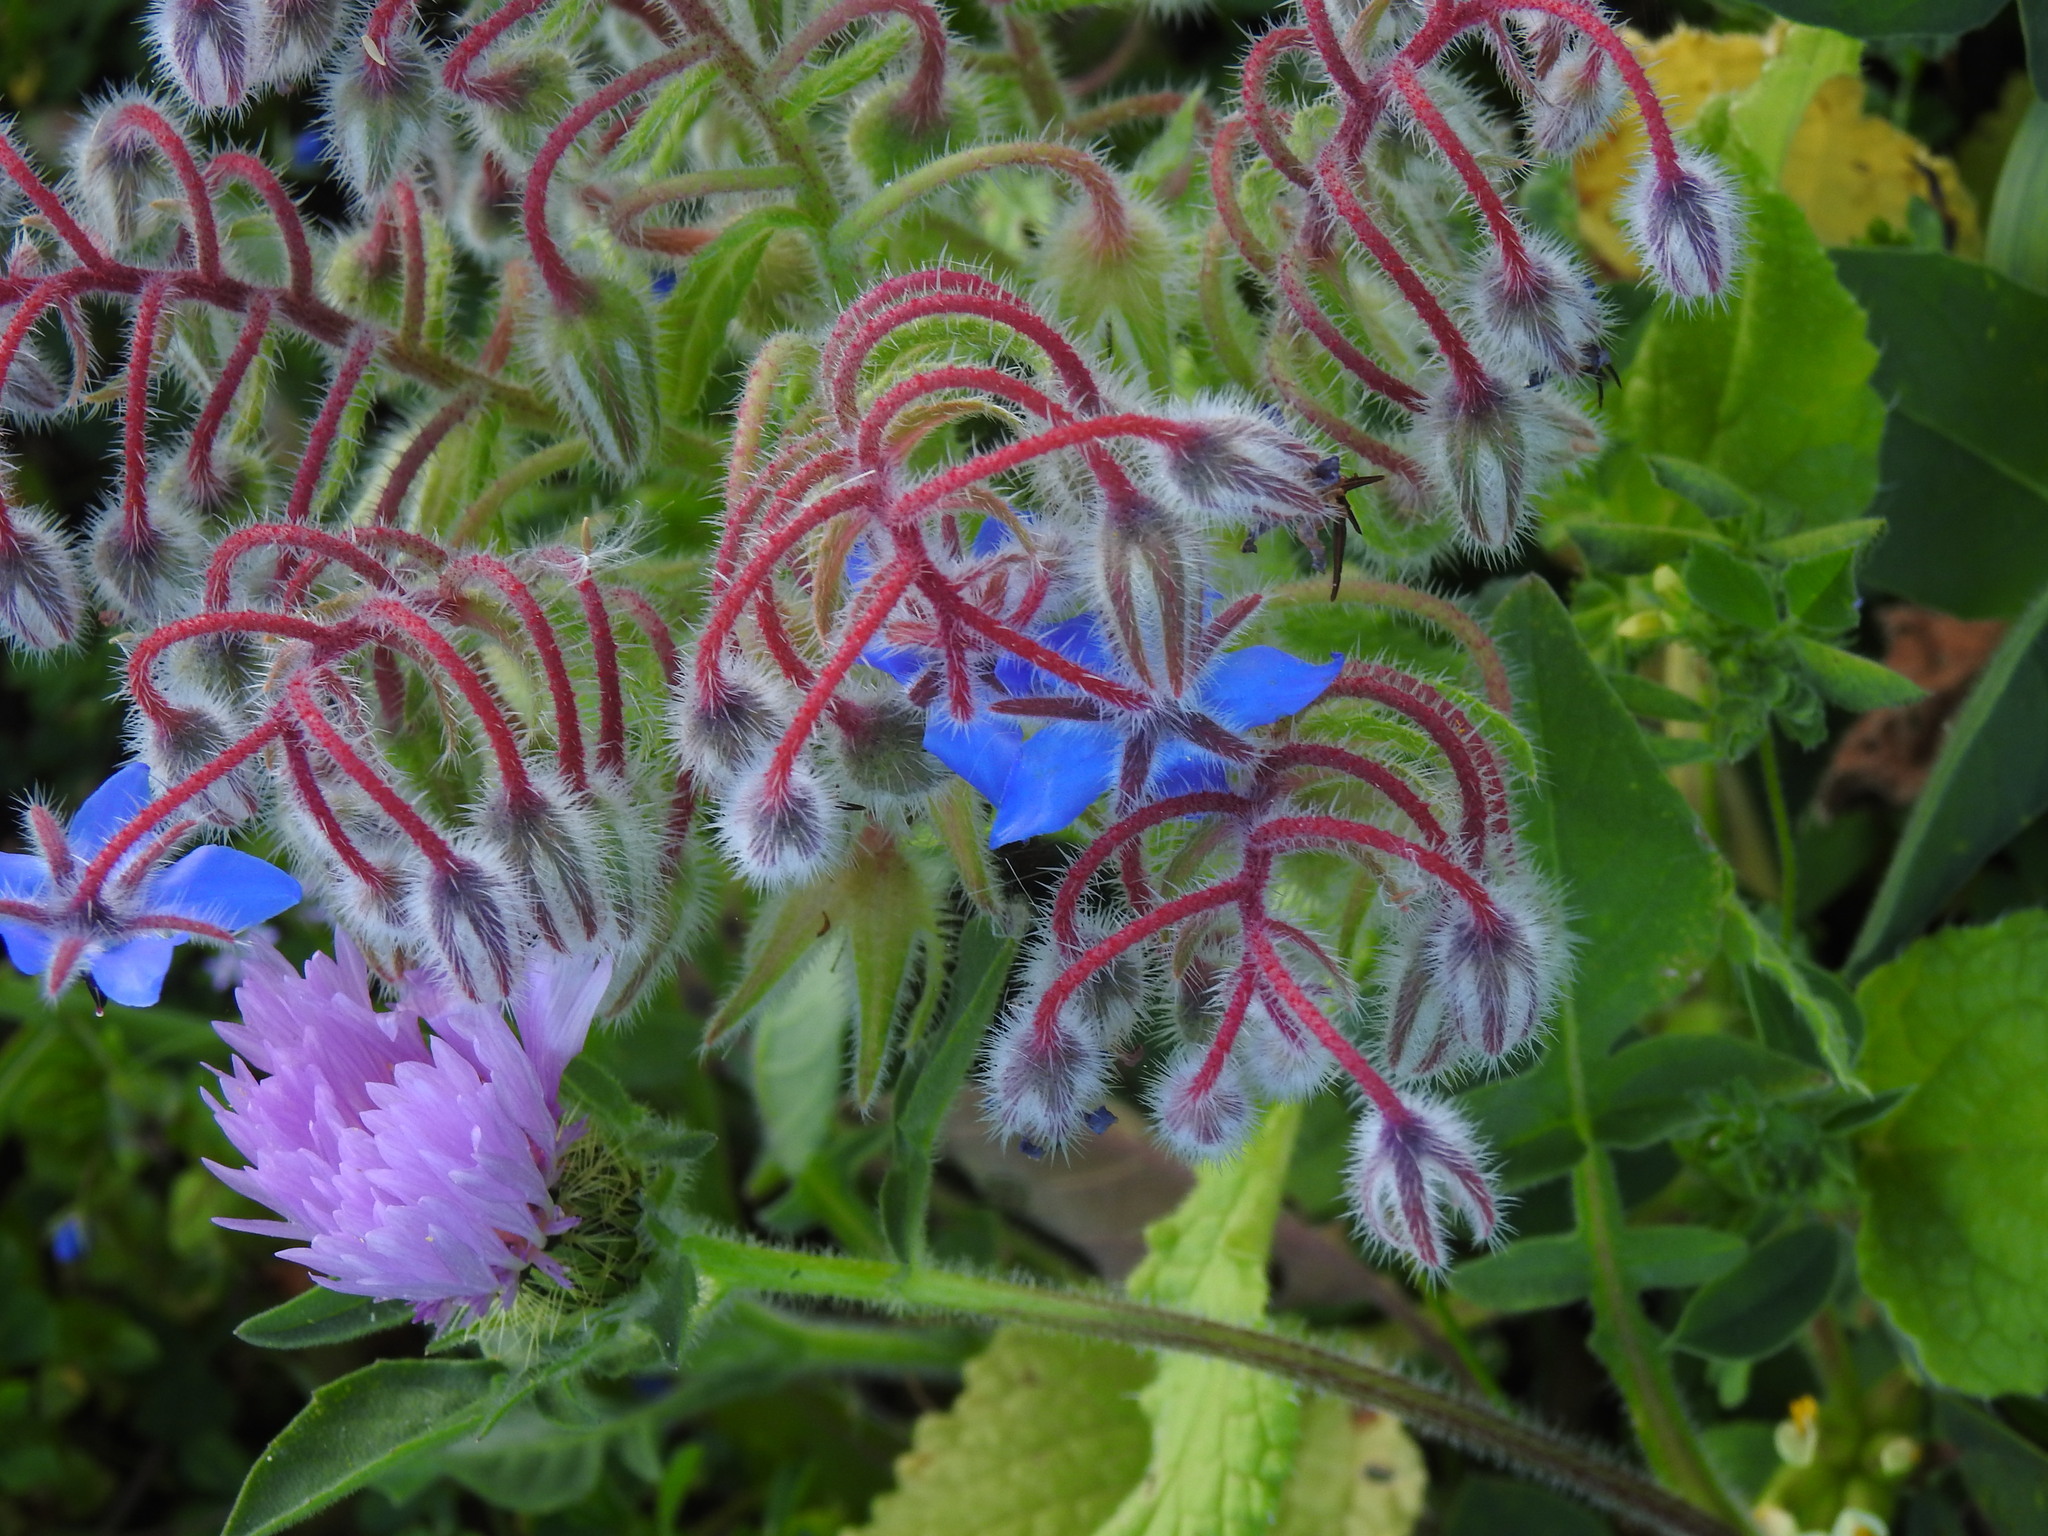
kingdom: Plantae
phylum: Tracheophyta
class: Magnoliopsida
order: Boraginales
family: Boraginaceae
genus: Borago
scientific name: Borago officinalis
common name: Borage
